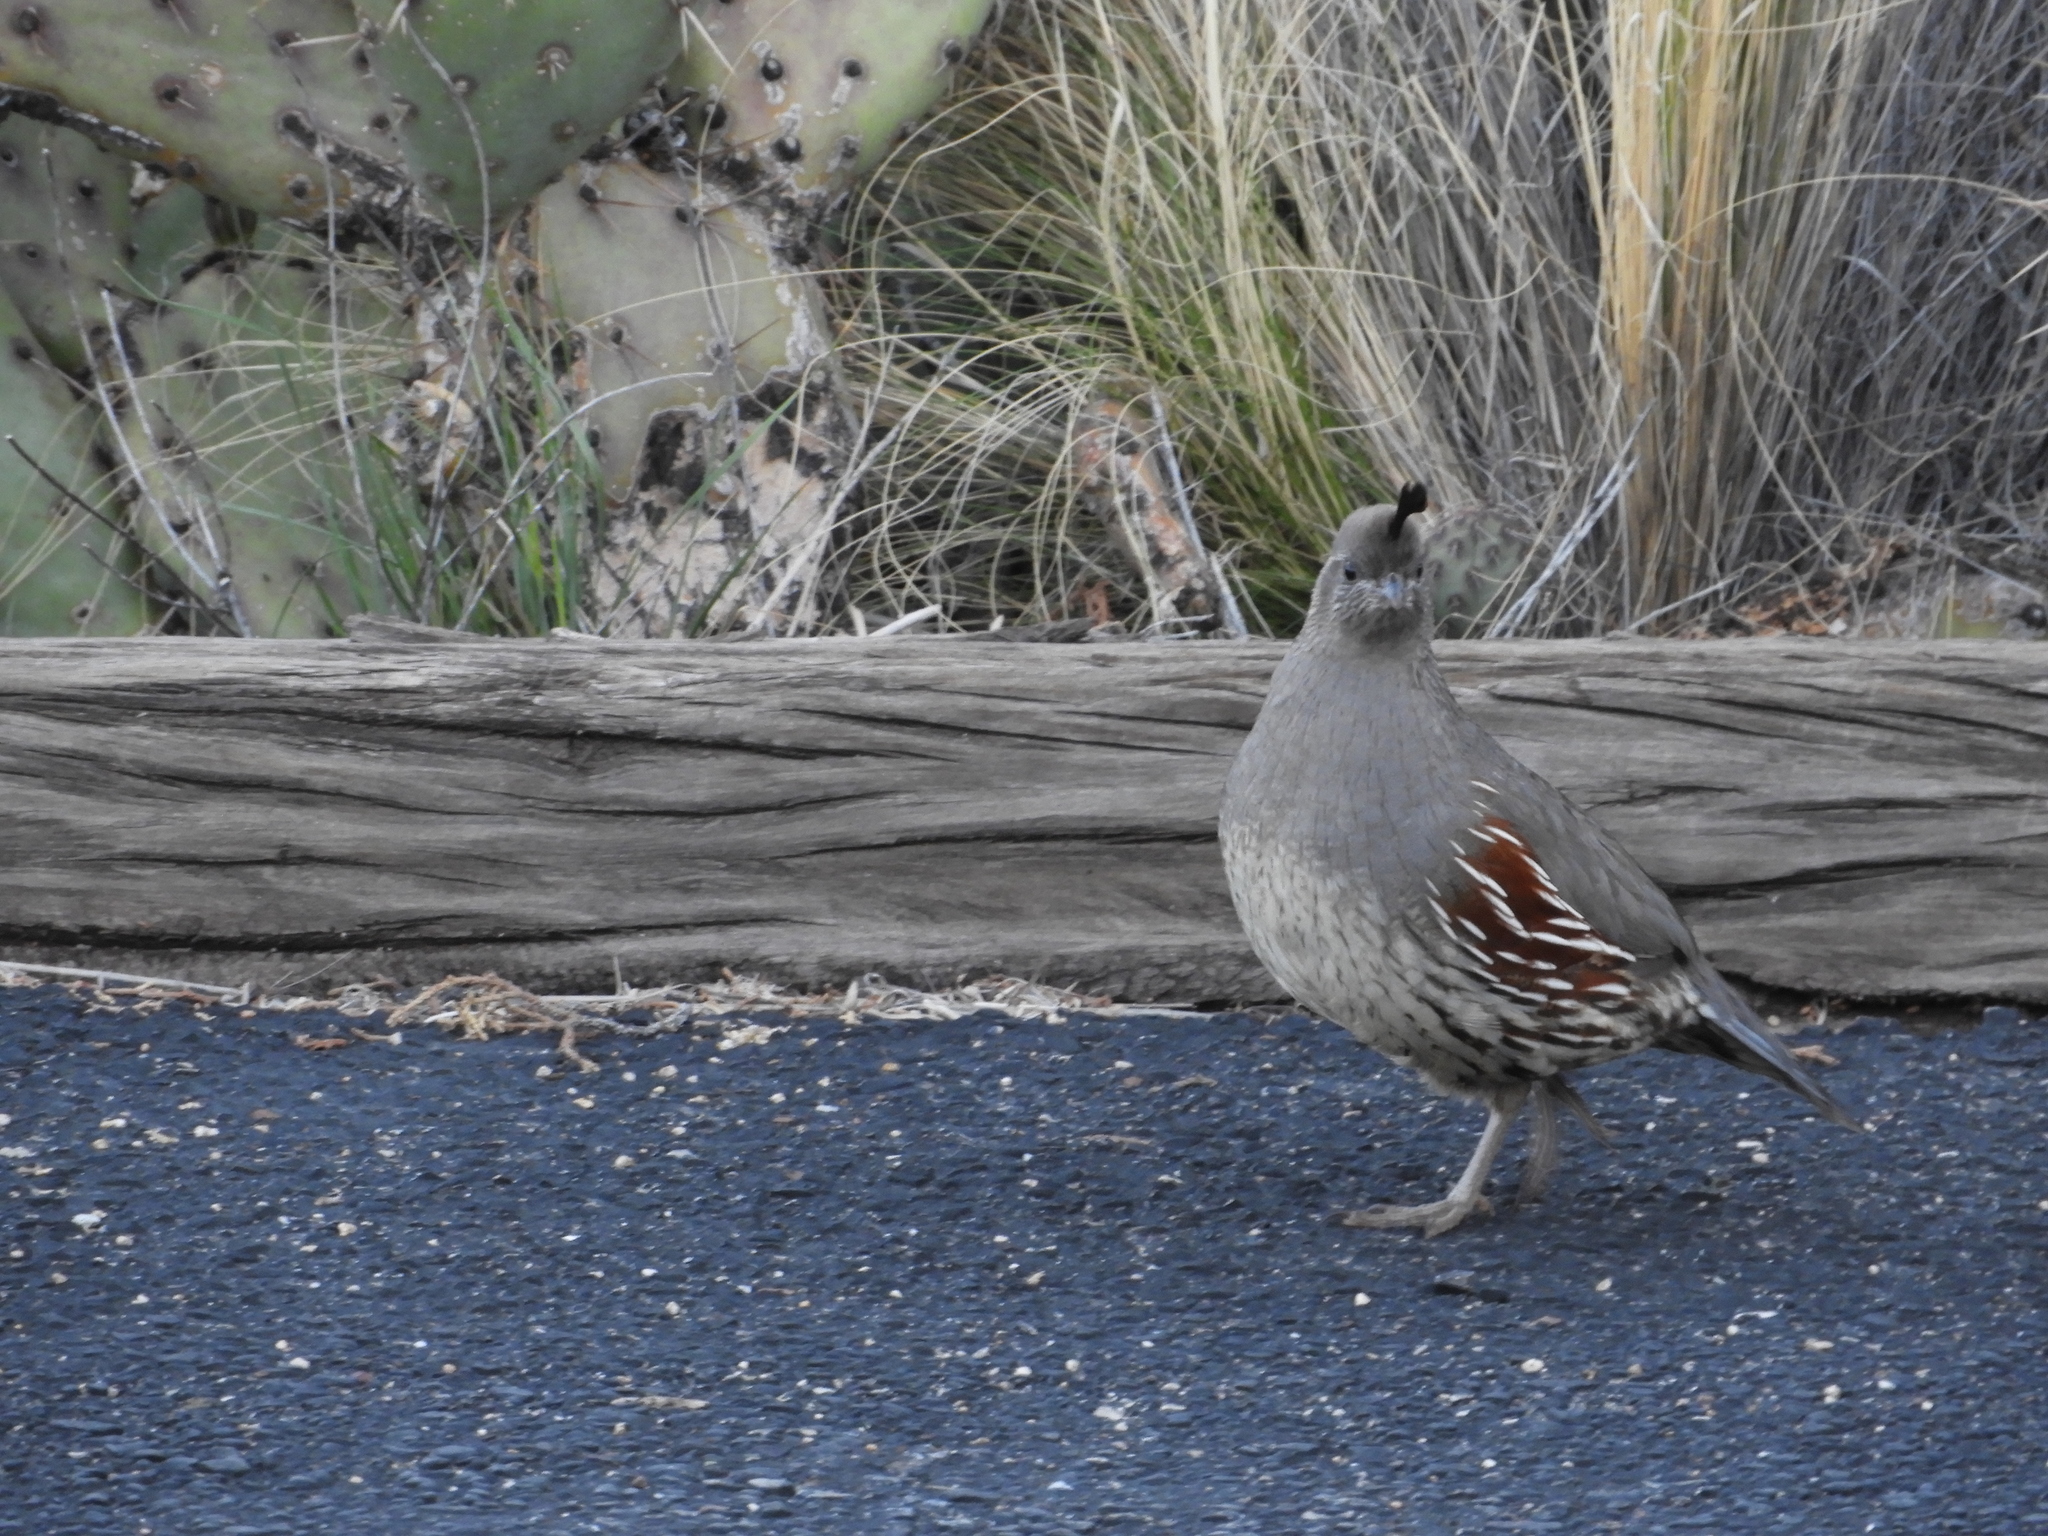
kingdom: Animalia
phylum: Chordata
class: Aves
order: Galliformes
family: Odontophoridae
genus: Callipepla
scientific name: Callipepla gambelii
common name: Gambel's quail
